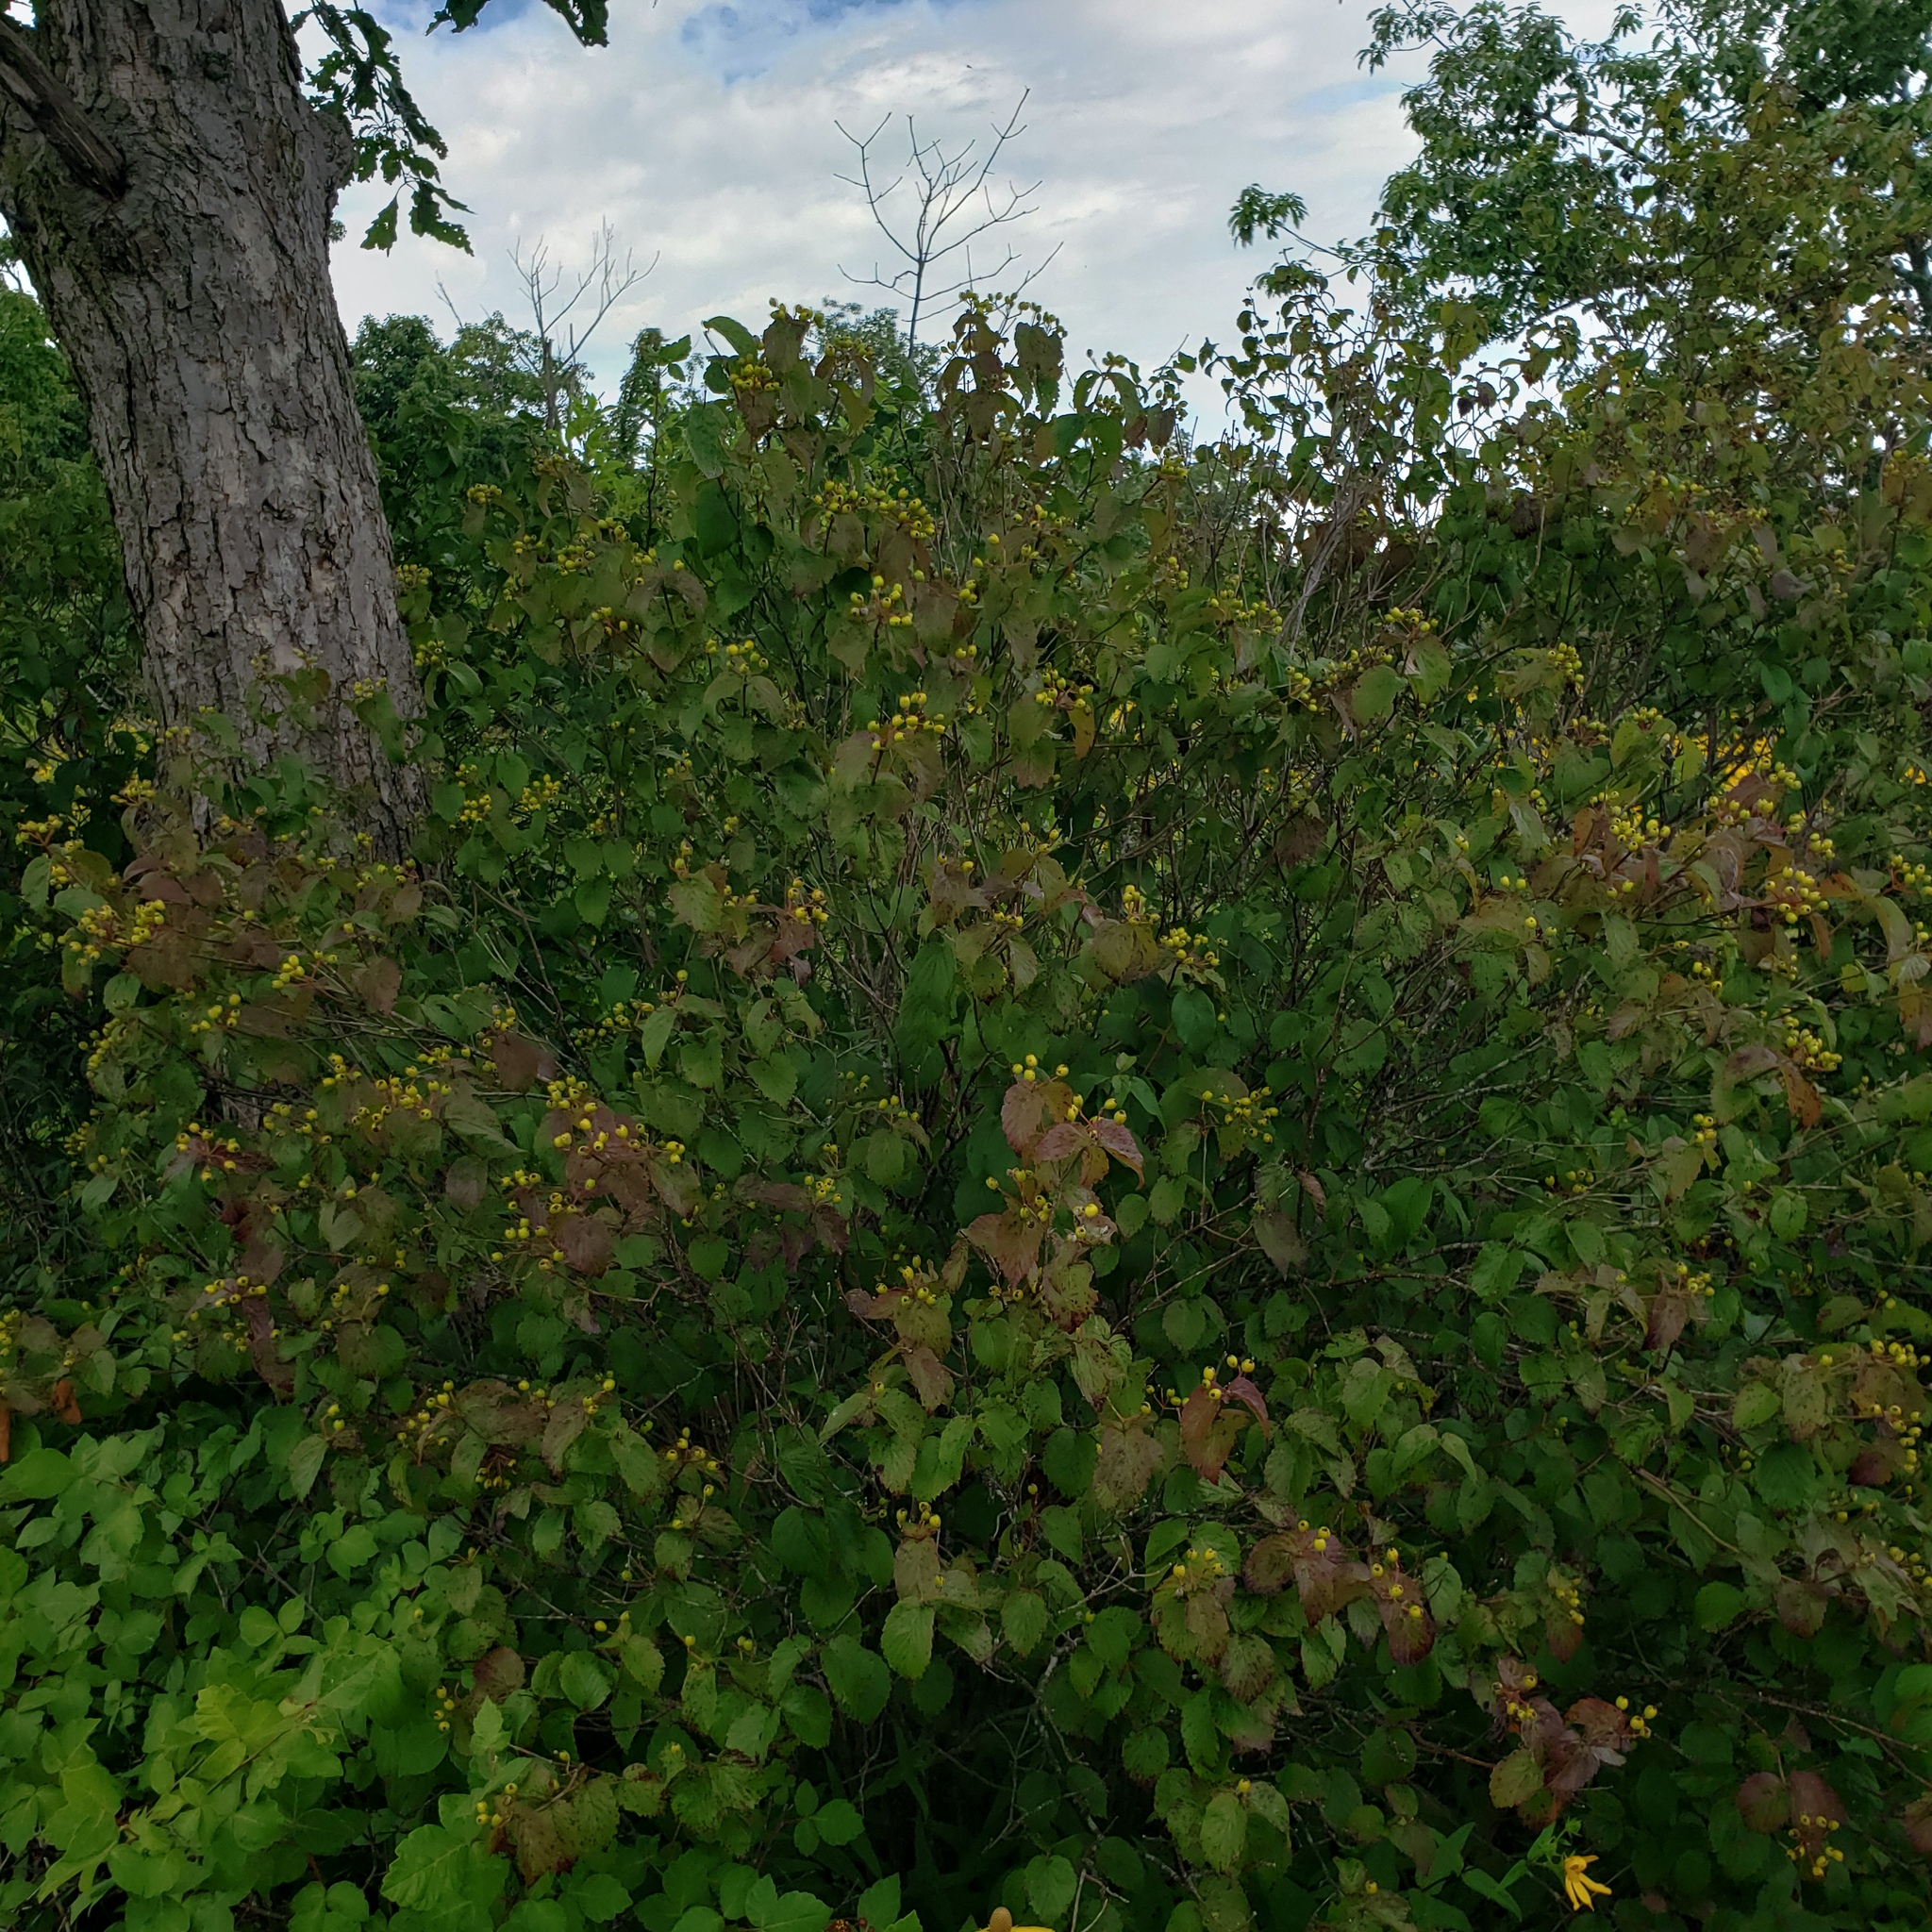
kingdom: Plantae
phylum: Tracheophyta
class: Magnoliopsida
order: Dipsacales
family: Viburnaceae
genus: Viburnum
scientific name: Viburnum rafinesqueanum
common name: Downy arrow-wood
